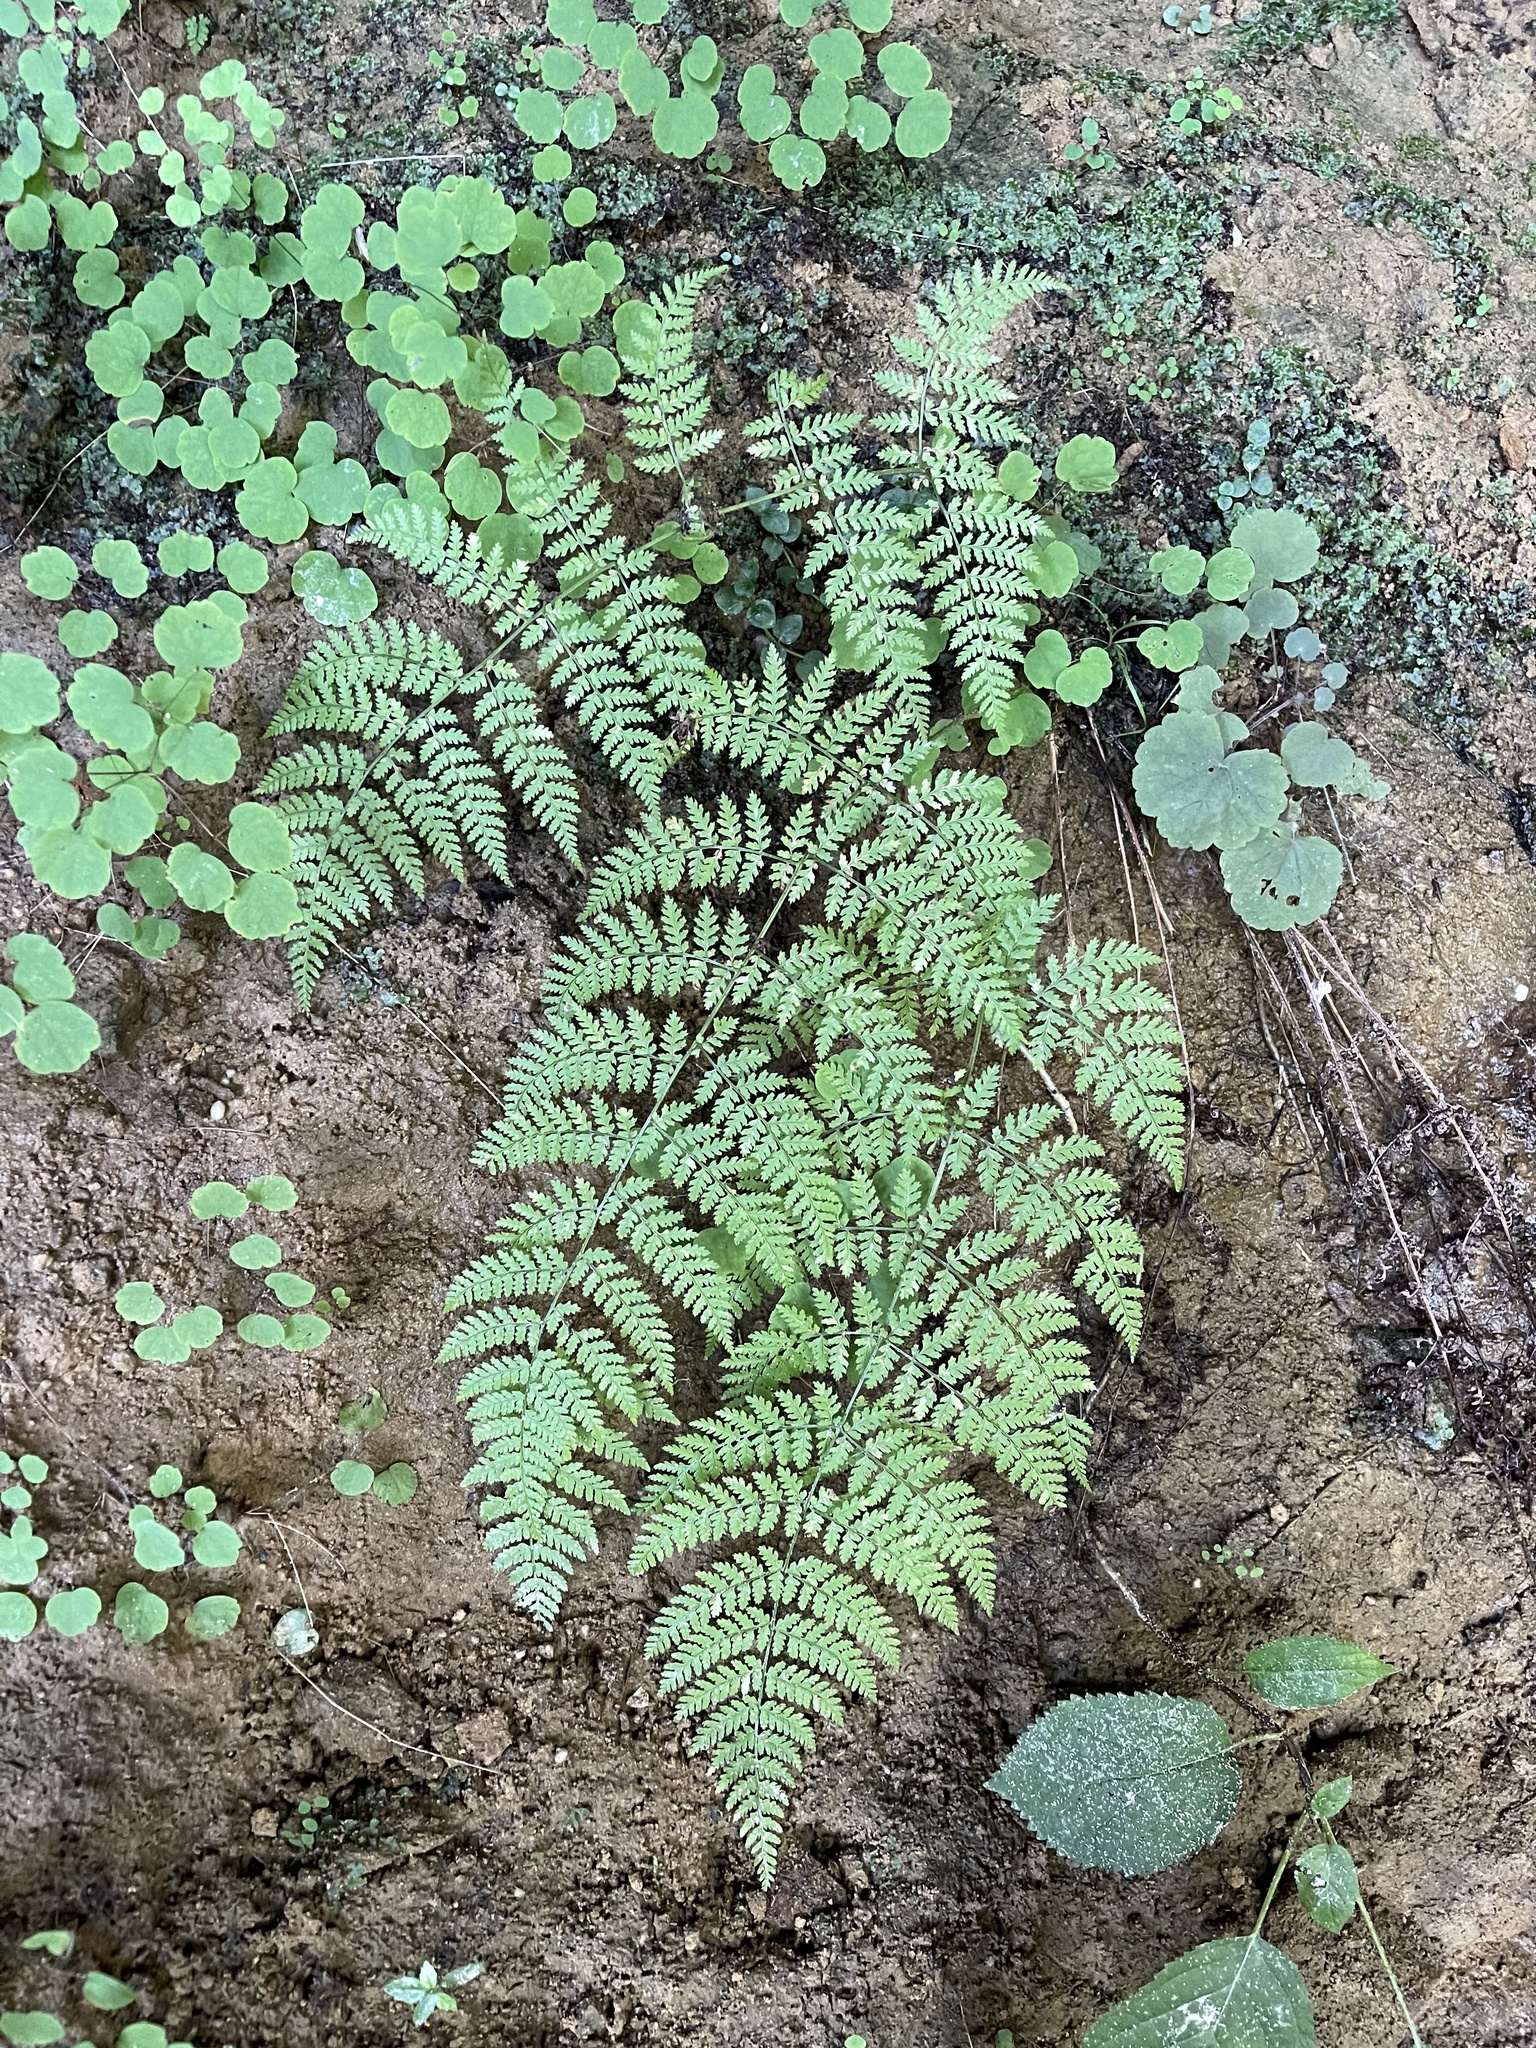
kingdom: Plantae
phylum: Tracheophyta
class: Polypodiopsida
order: Polypodiales
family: Dryopteridaceae
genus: Dryopteris
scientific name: Dryopteris intermedia
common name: Evergreen wood fern
